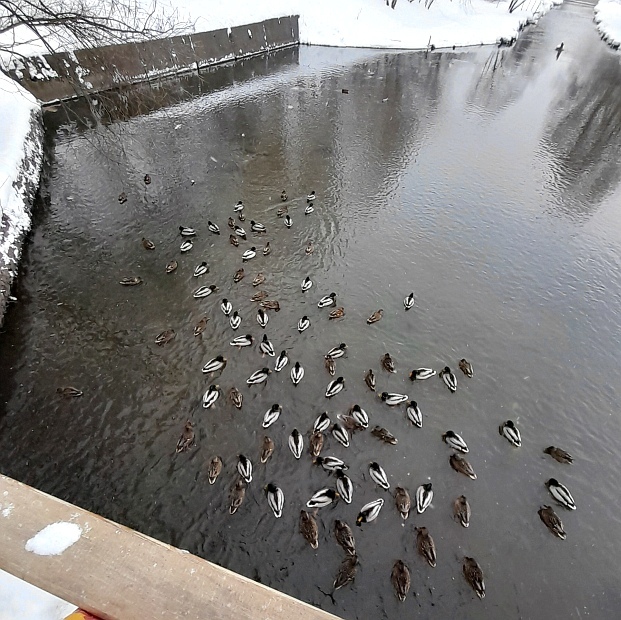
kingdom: Animalia
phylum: Chordata
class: Aves
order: Anseriformes
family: Anatidae
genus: Anas
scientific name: Anas platyrhynchos
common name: Mallard
